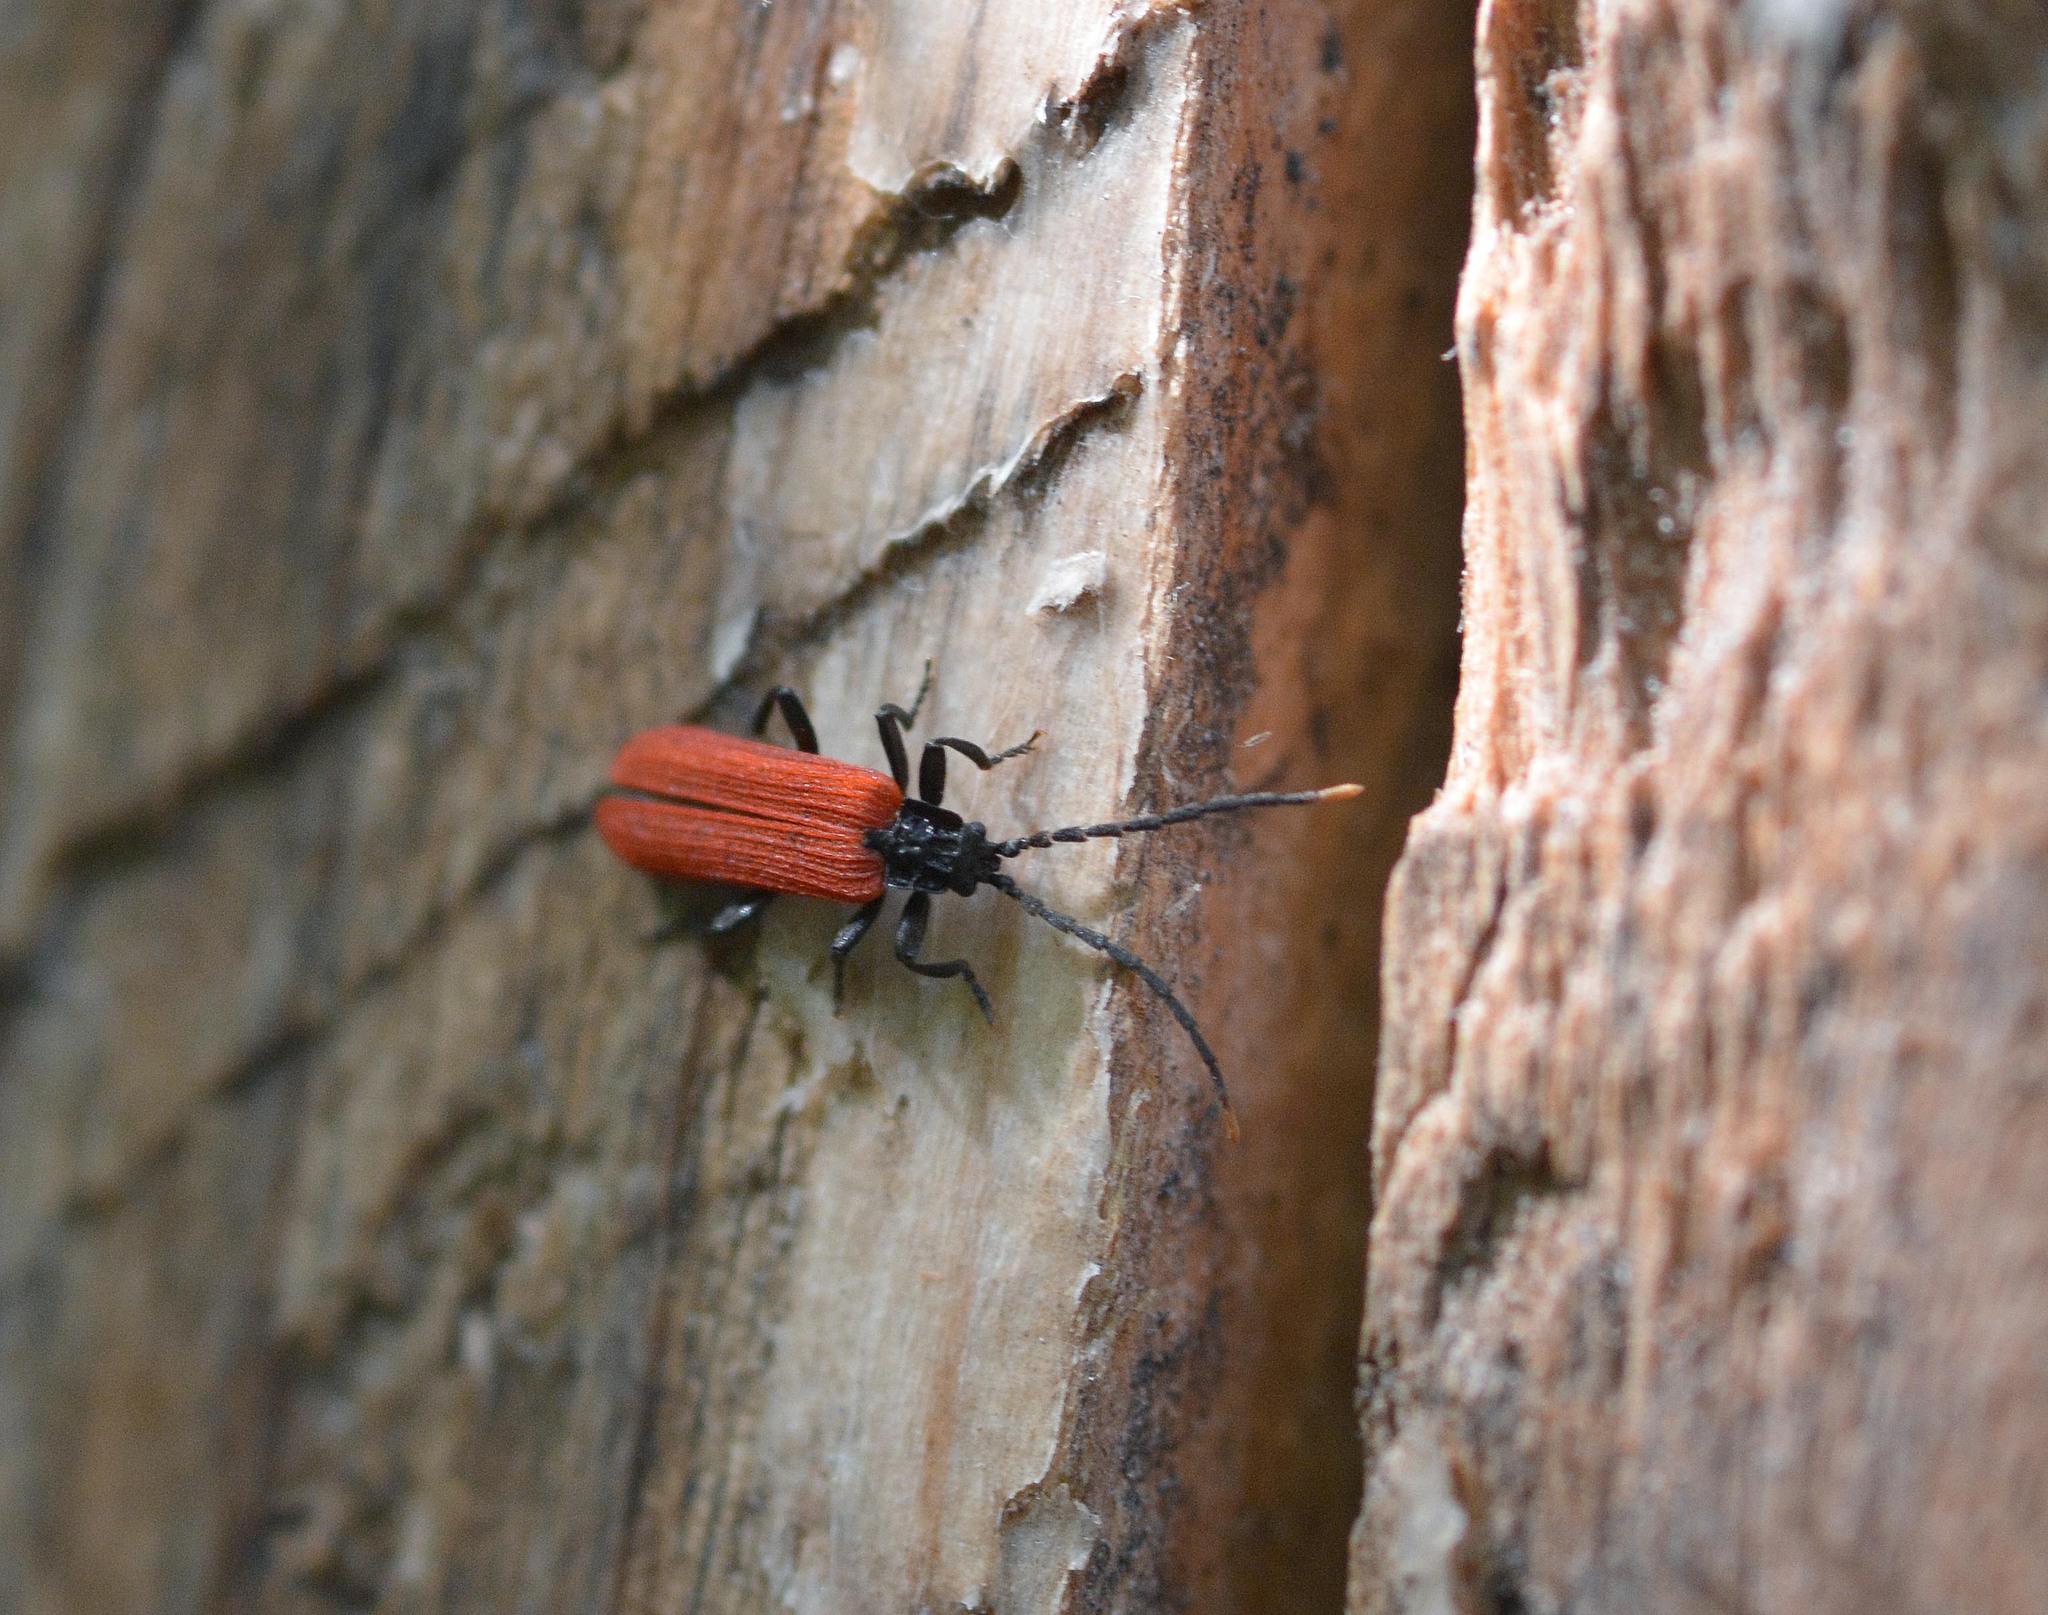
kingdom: Animalia
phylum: Arthropoda
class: Insecta
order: Coleoptera
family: Lycidae
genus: Platycis
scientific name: Platycis minutus
